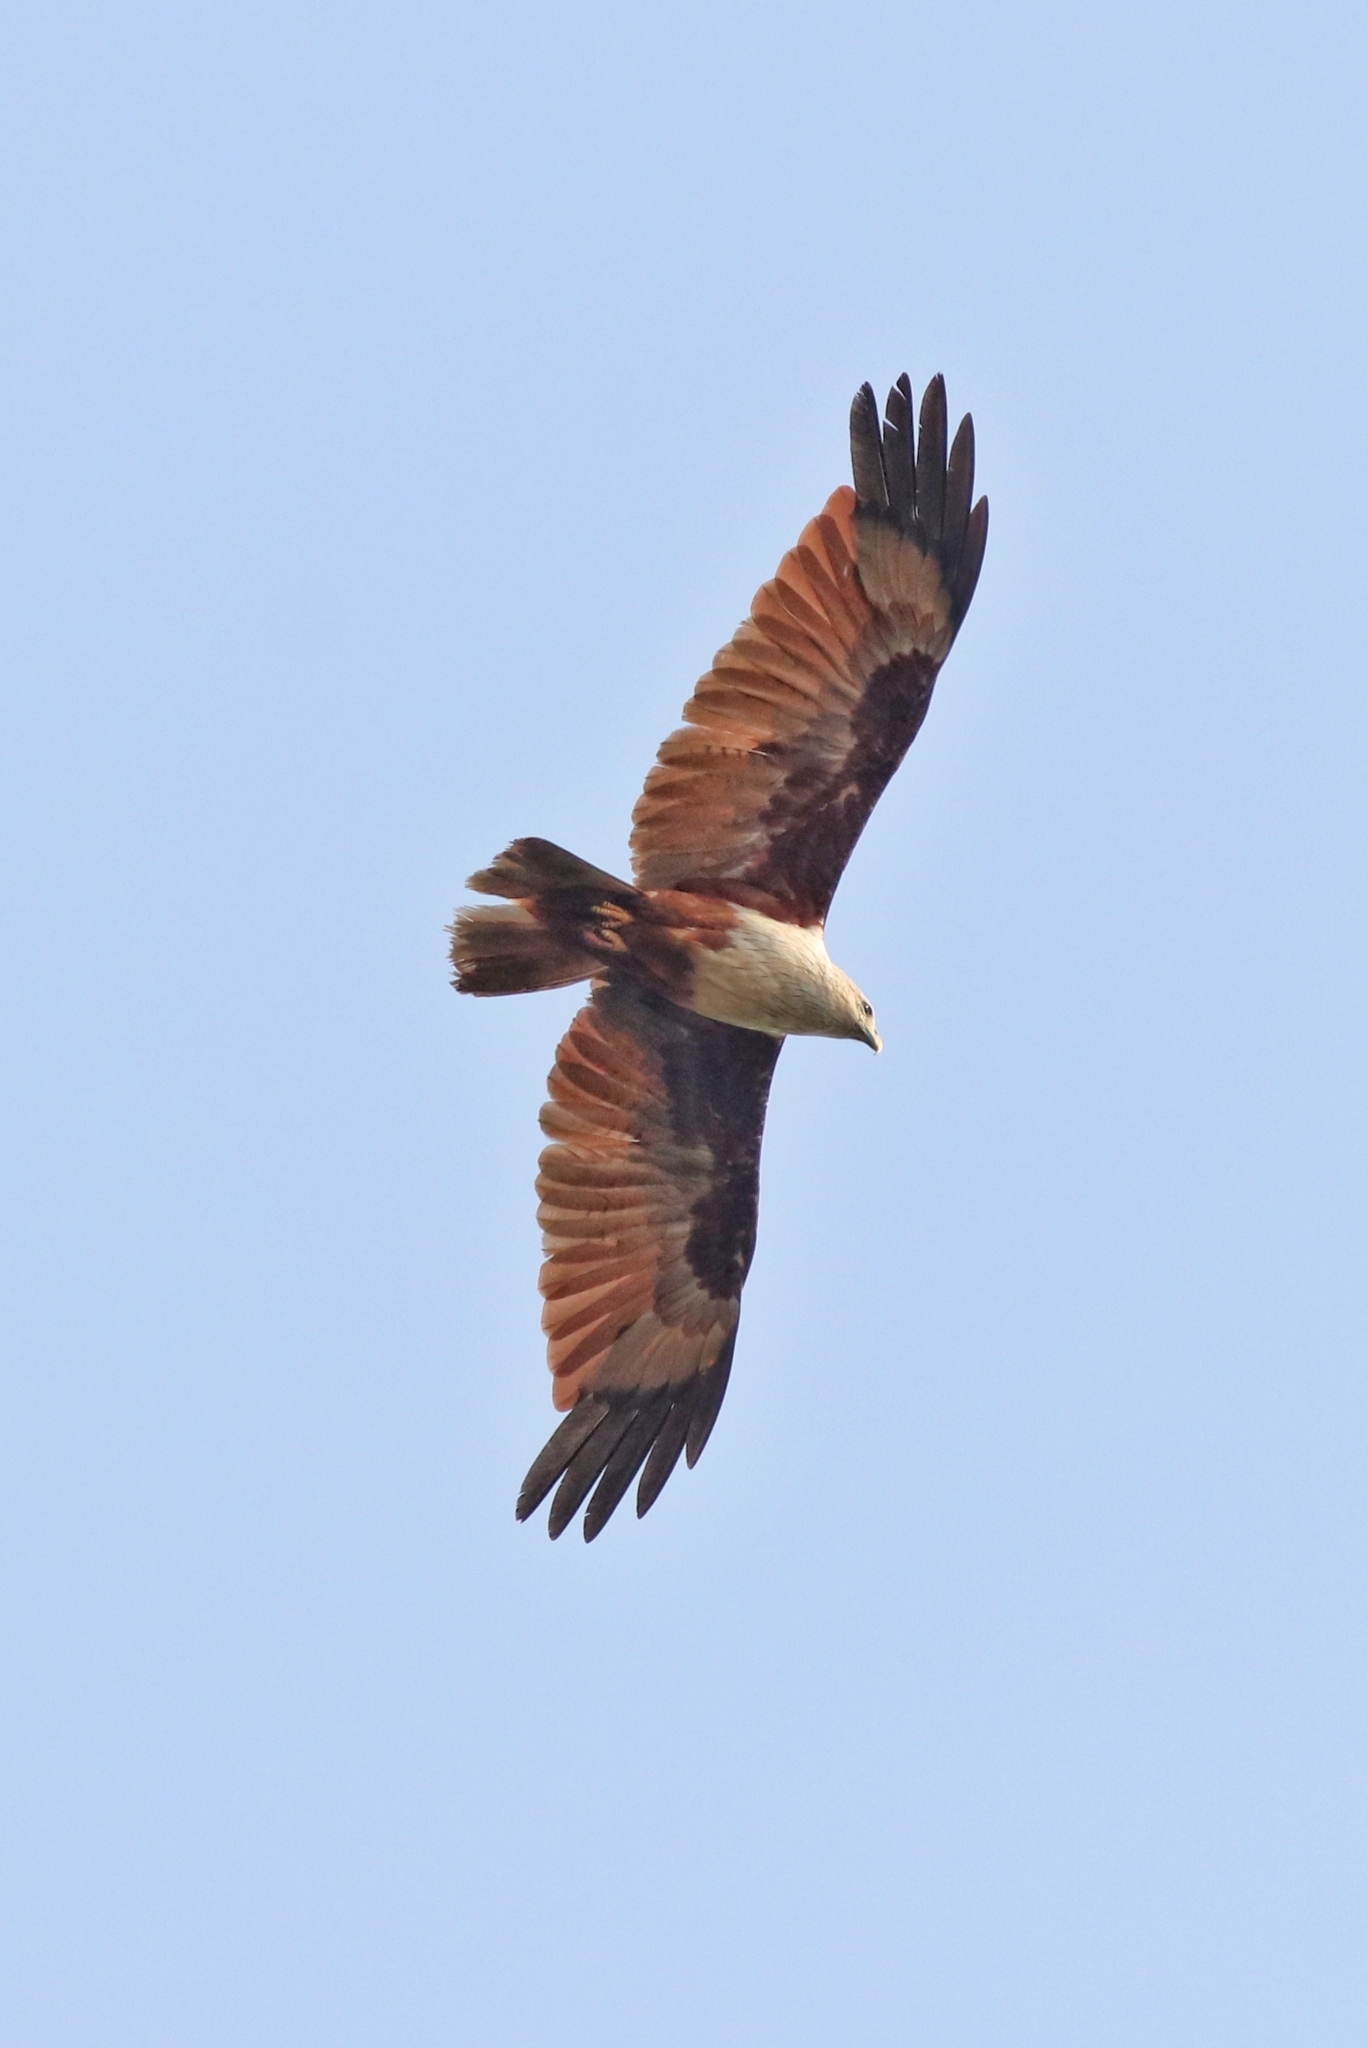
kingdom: Animalia
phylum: Chordata
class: Aves
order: Accipitriformes
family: Accipitridae
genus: Haliastur
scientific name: Haliastur indus
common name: Brahminy kite
